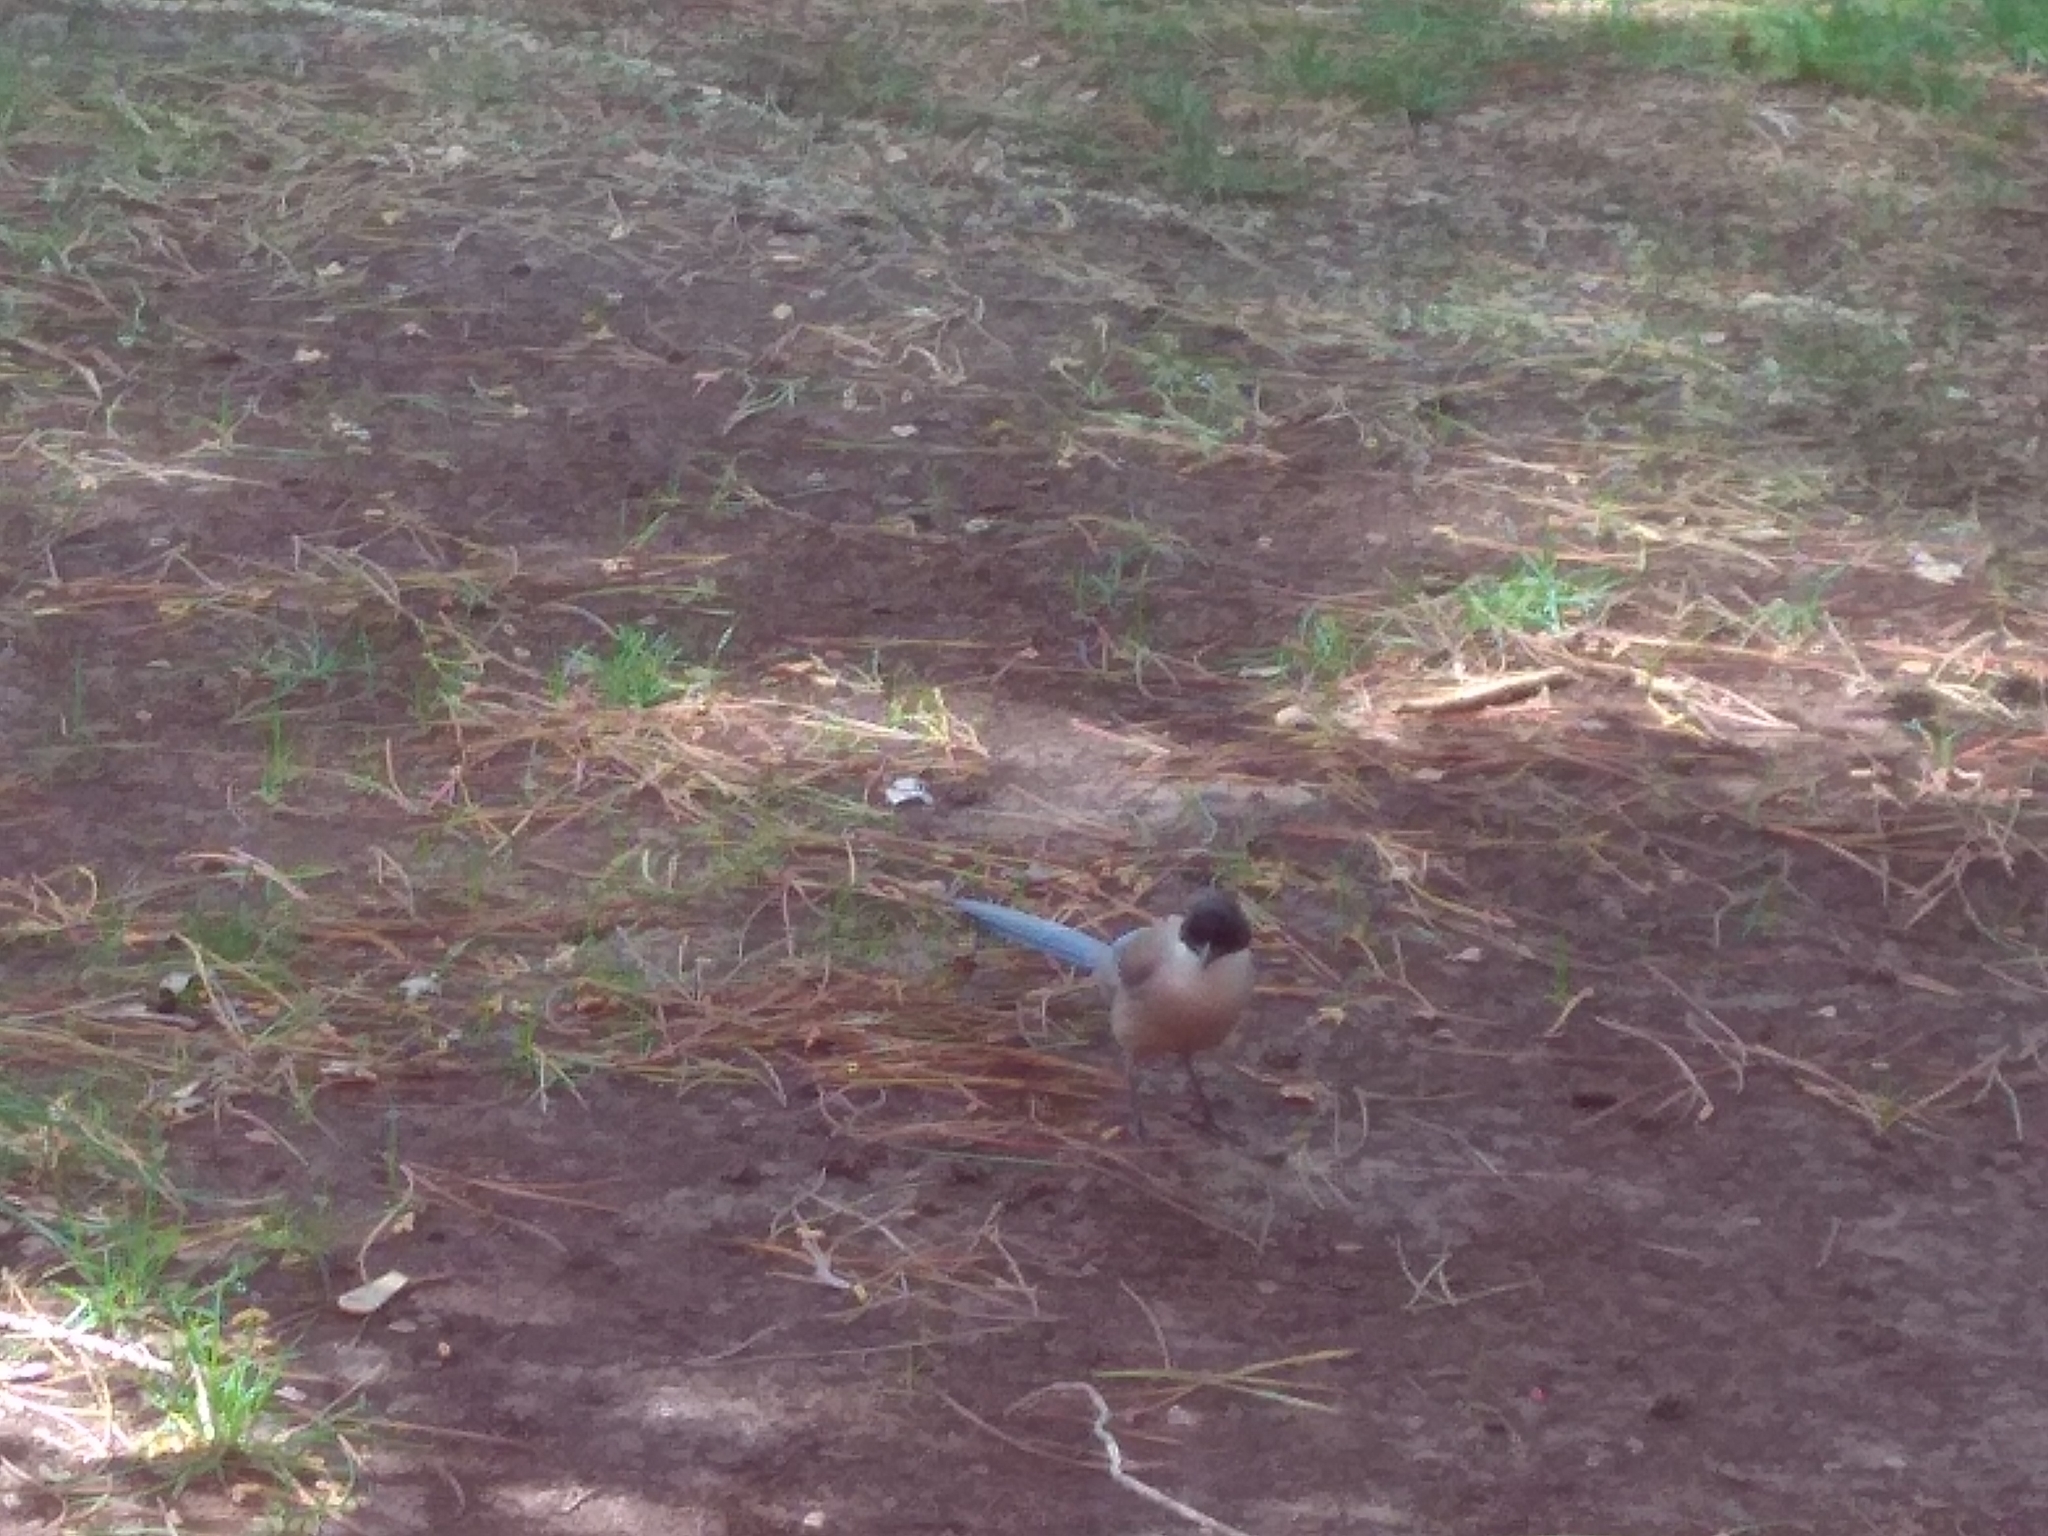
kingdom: Animalia
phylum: Chordata
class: Aves
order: Passeriformes
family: Corvidae
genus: Cyanopica
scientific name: Cyanopica cooki
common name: Iberian magpie
